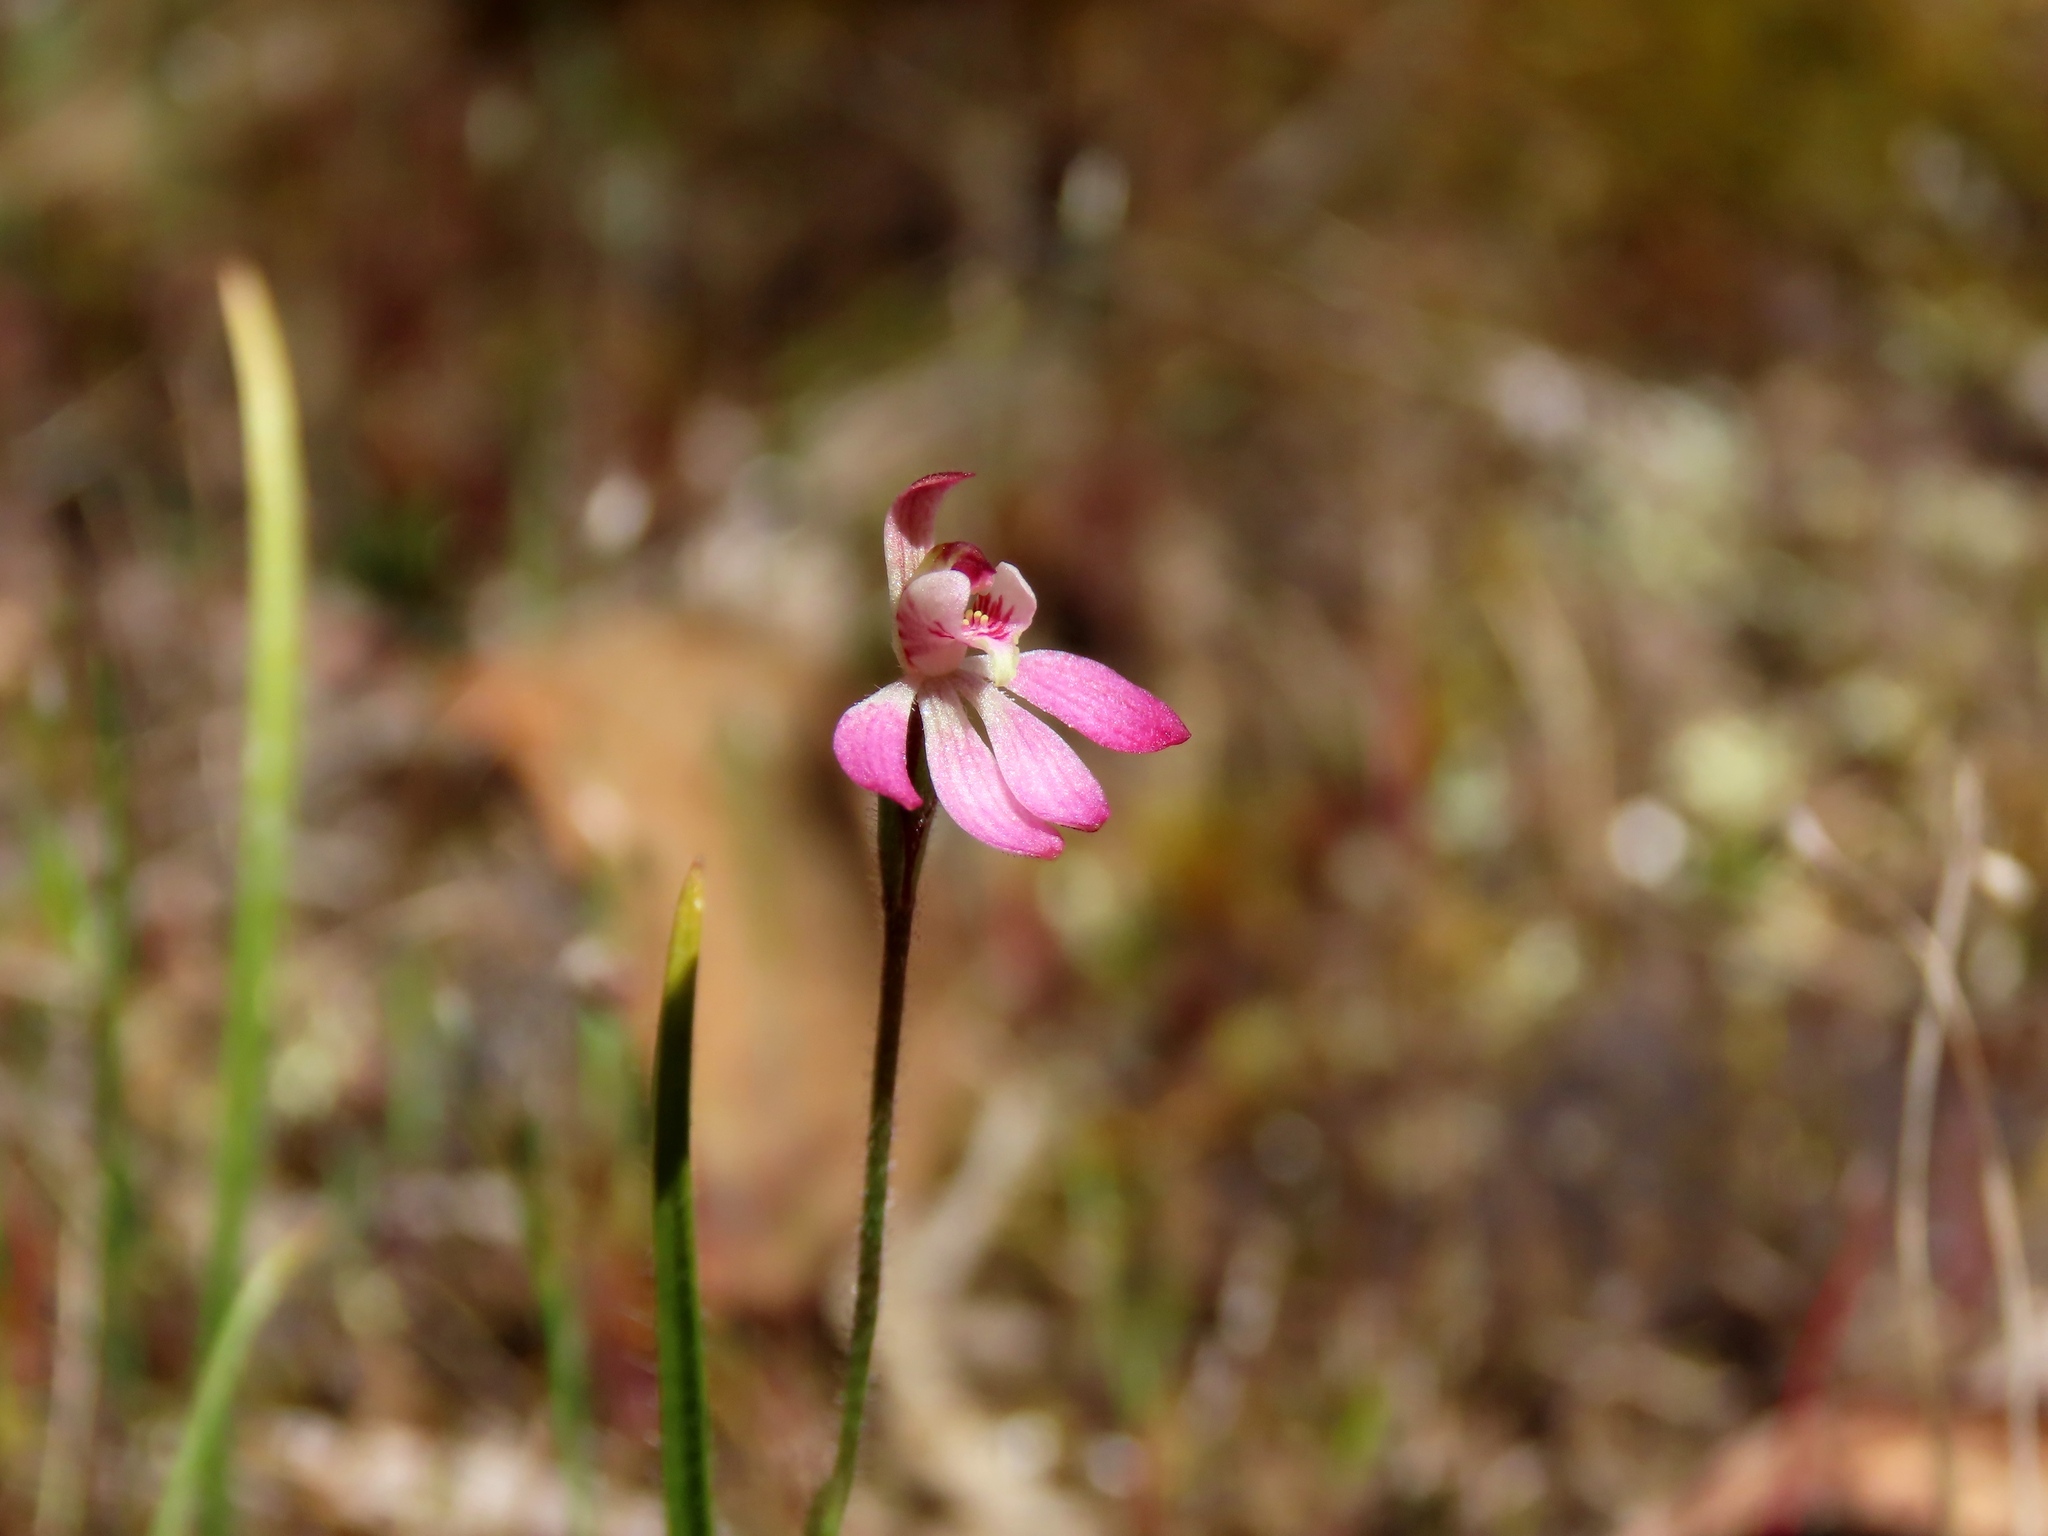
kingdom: Plantae
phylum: Tracheophyta
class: Liliopsida
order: Asparagales
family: Orchidaceae
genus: Caladenia
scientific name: Caladenia pusilla
